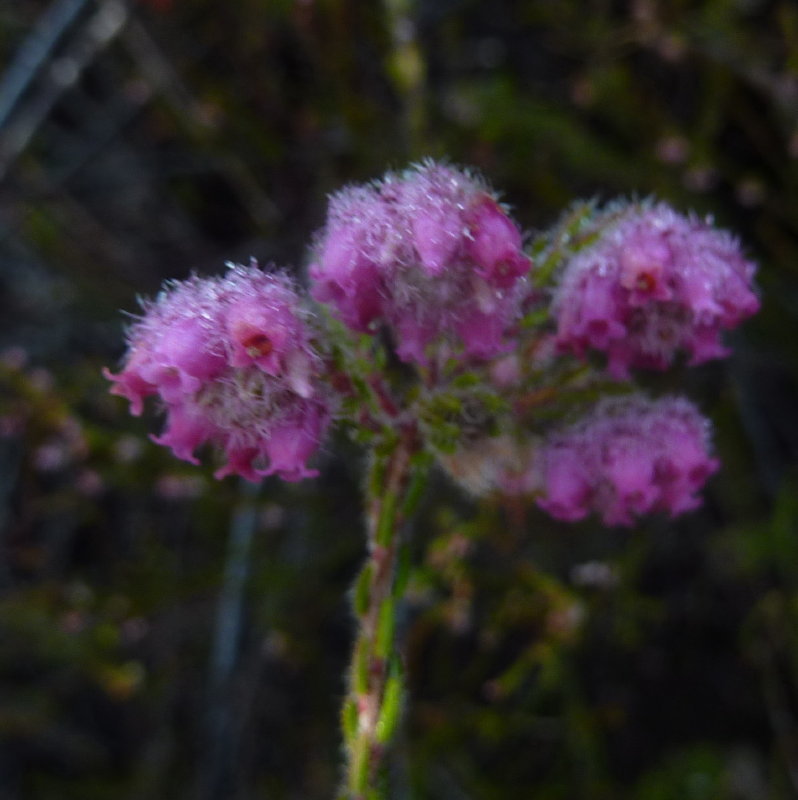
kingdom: Plantae
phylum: Tracheophyta
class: Magnoliopsida
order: Ericales
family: Ericaceae
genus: Erica
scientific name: Erica solandra
